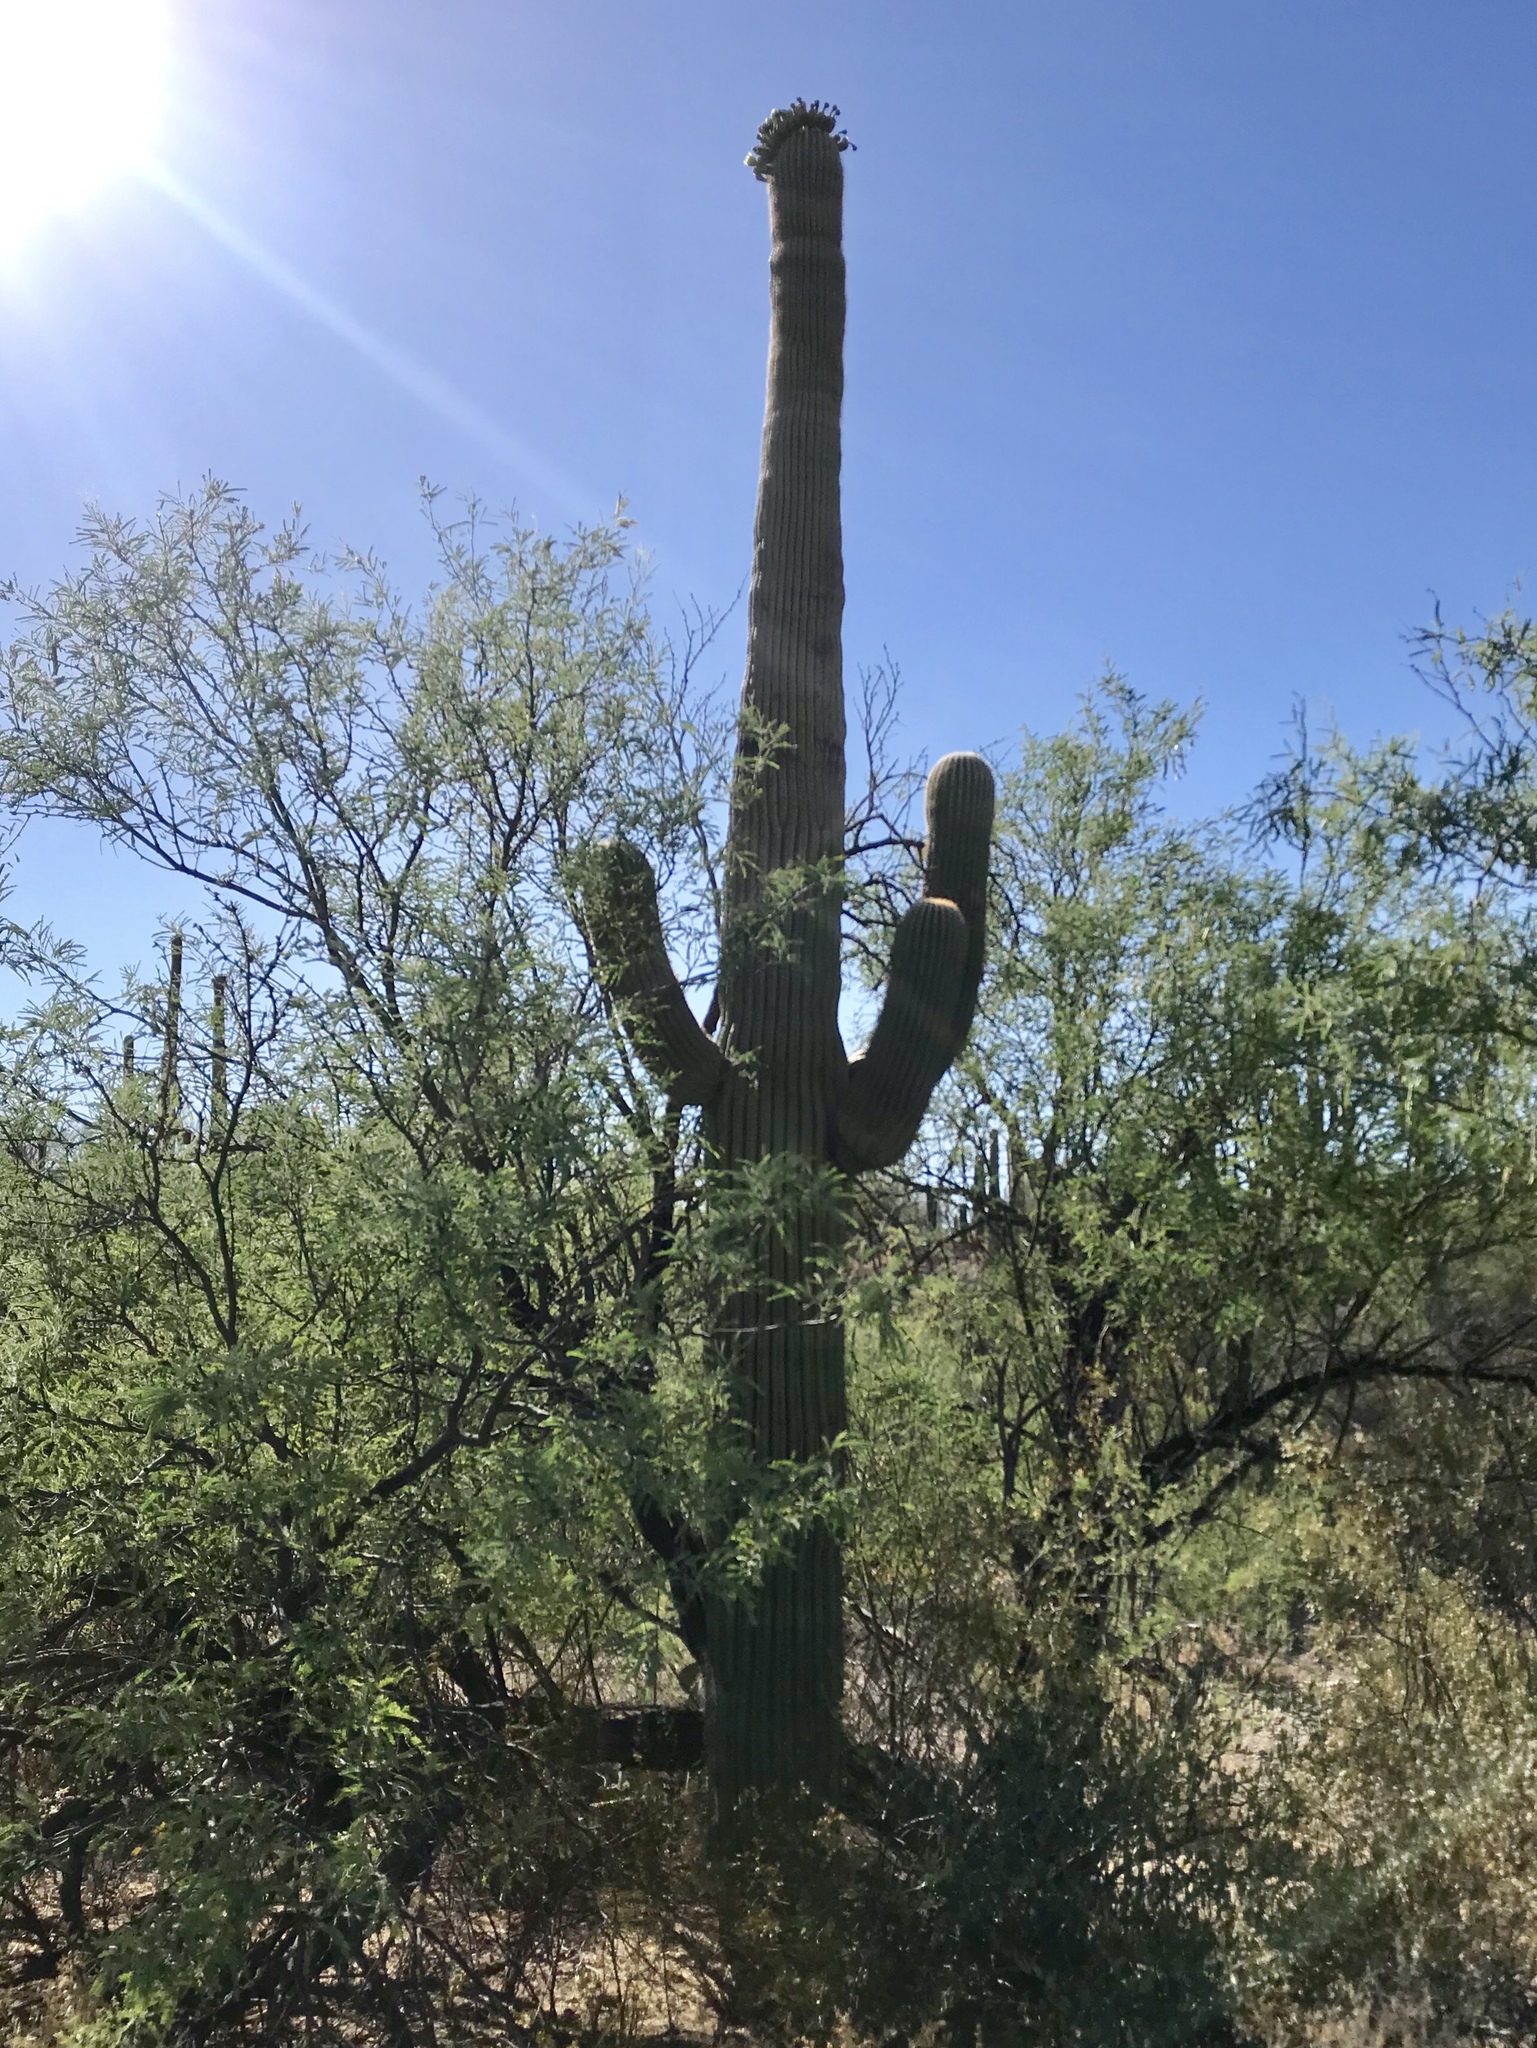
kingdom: Plantae
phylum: Tracheophyta
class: Magnoliopsida
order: Caryophyllales
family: Cactaceae
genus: Carnegiea
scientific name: Carnegiea gigantea
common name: Saguaro
